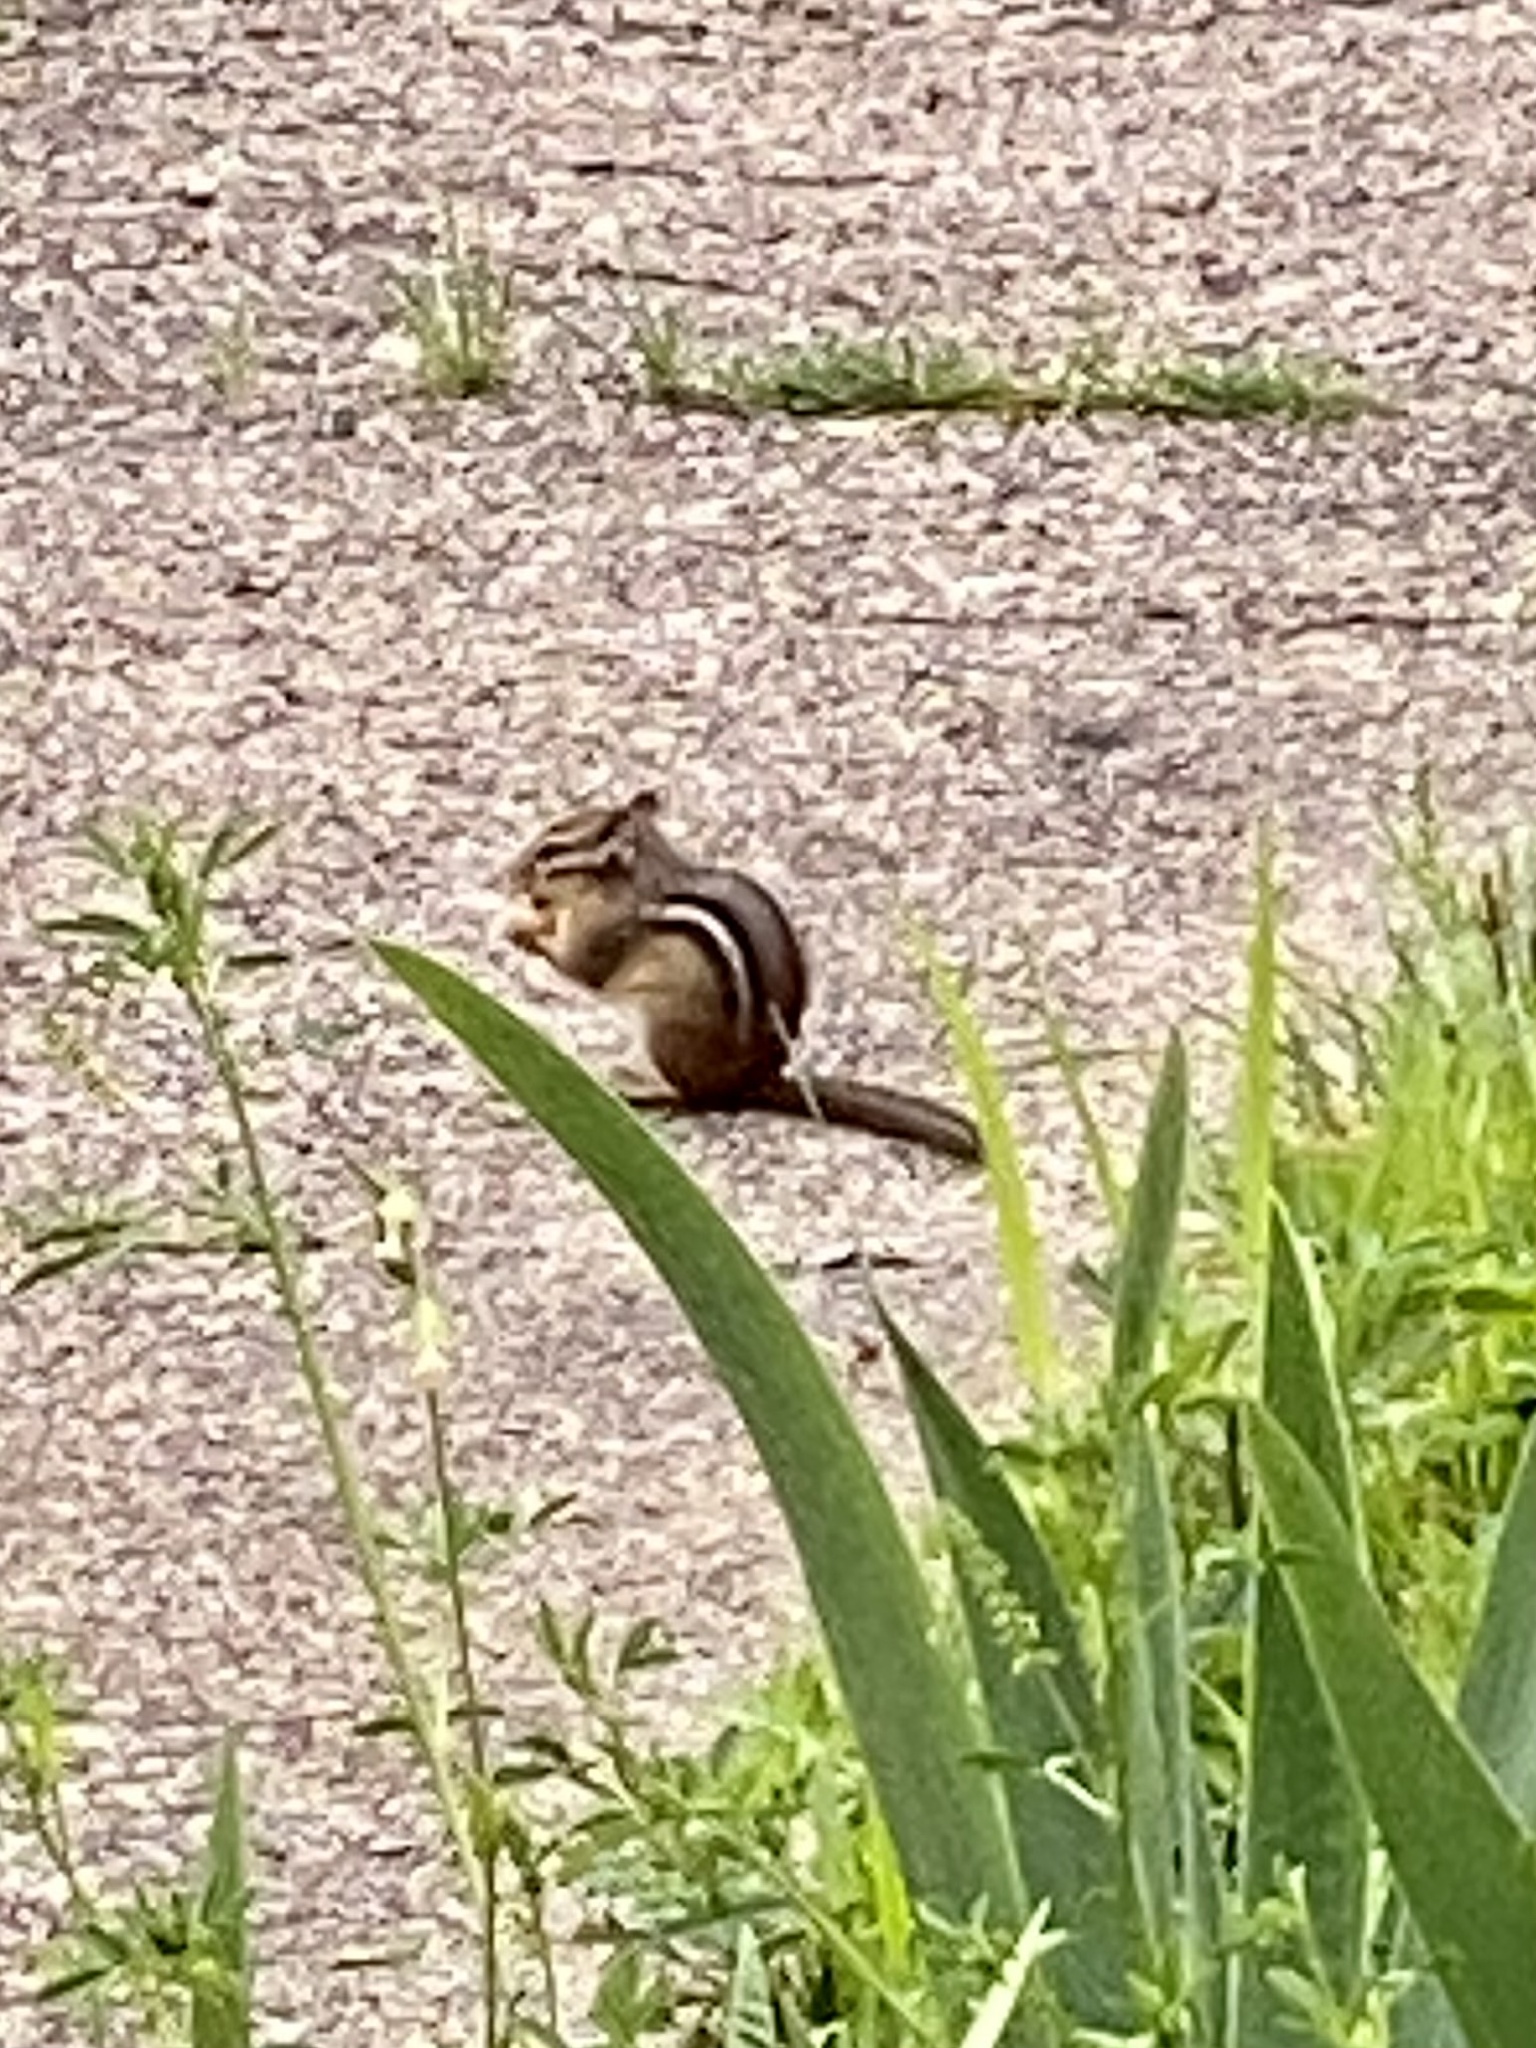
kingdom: Animalia
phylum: Chordata
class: Mammalia
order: Rodentia
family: Sciuridae
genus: Tamias
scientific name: Tamias striatus
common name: Eastern chipmunk
